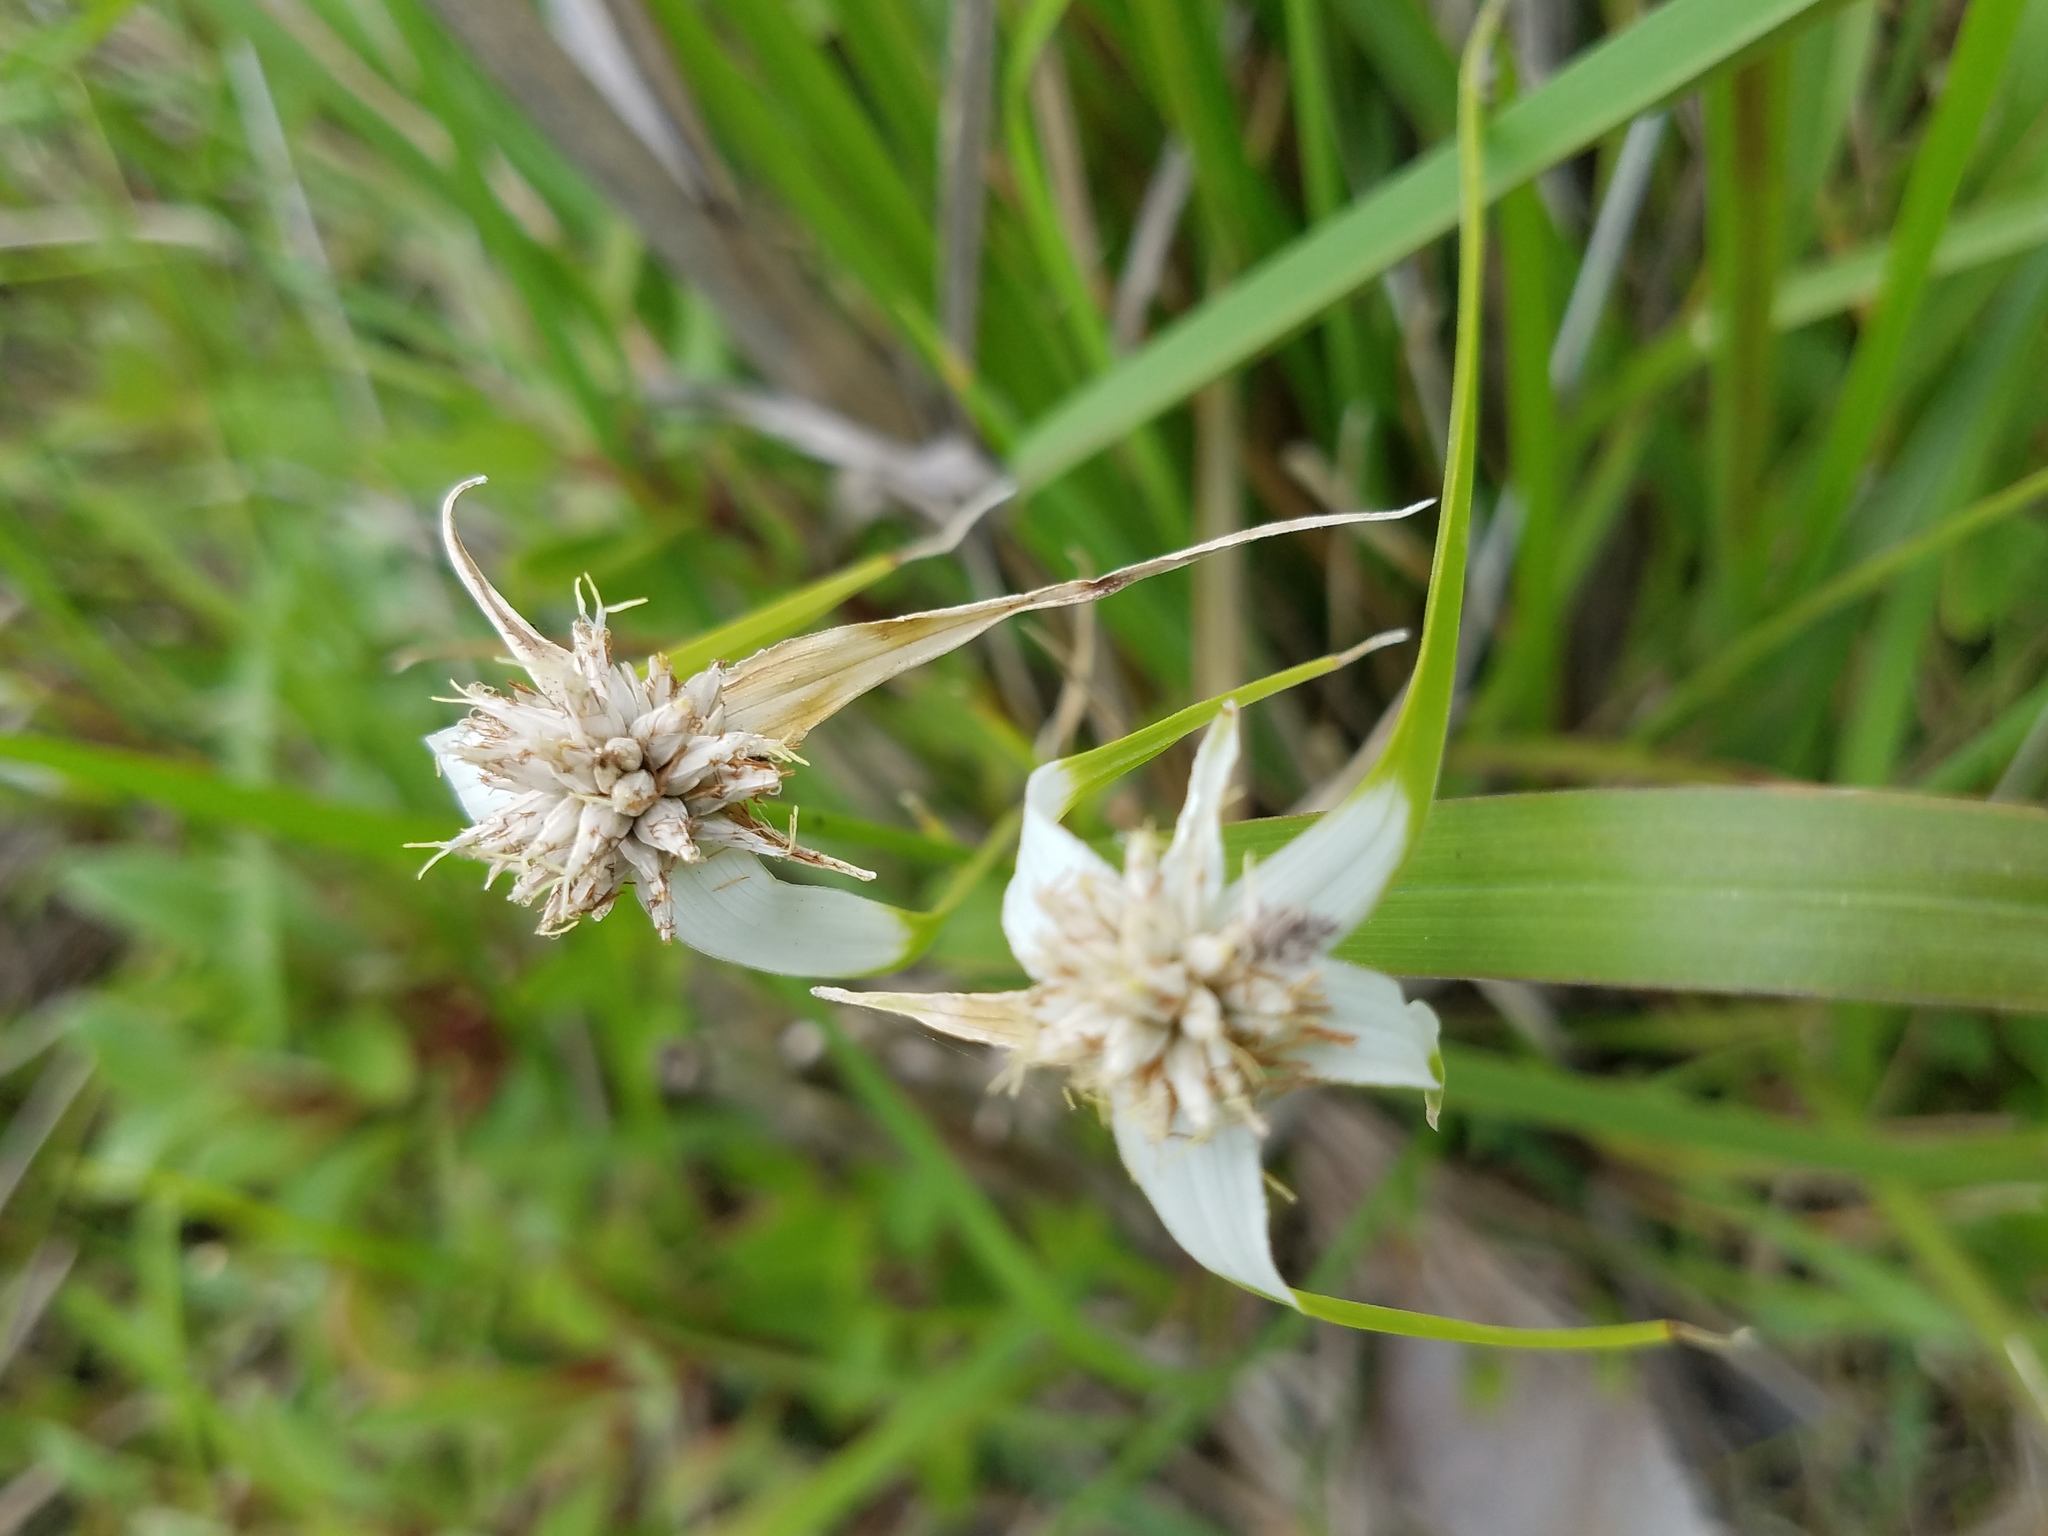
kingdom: Plantae
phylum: Tracheophyta
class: Liliopsida
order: Poales
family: Cyperaceae
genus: Rhynchospora
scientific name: Rhynchospora colorata
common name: Star sedge
